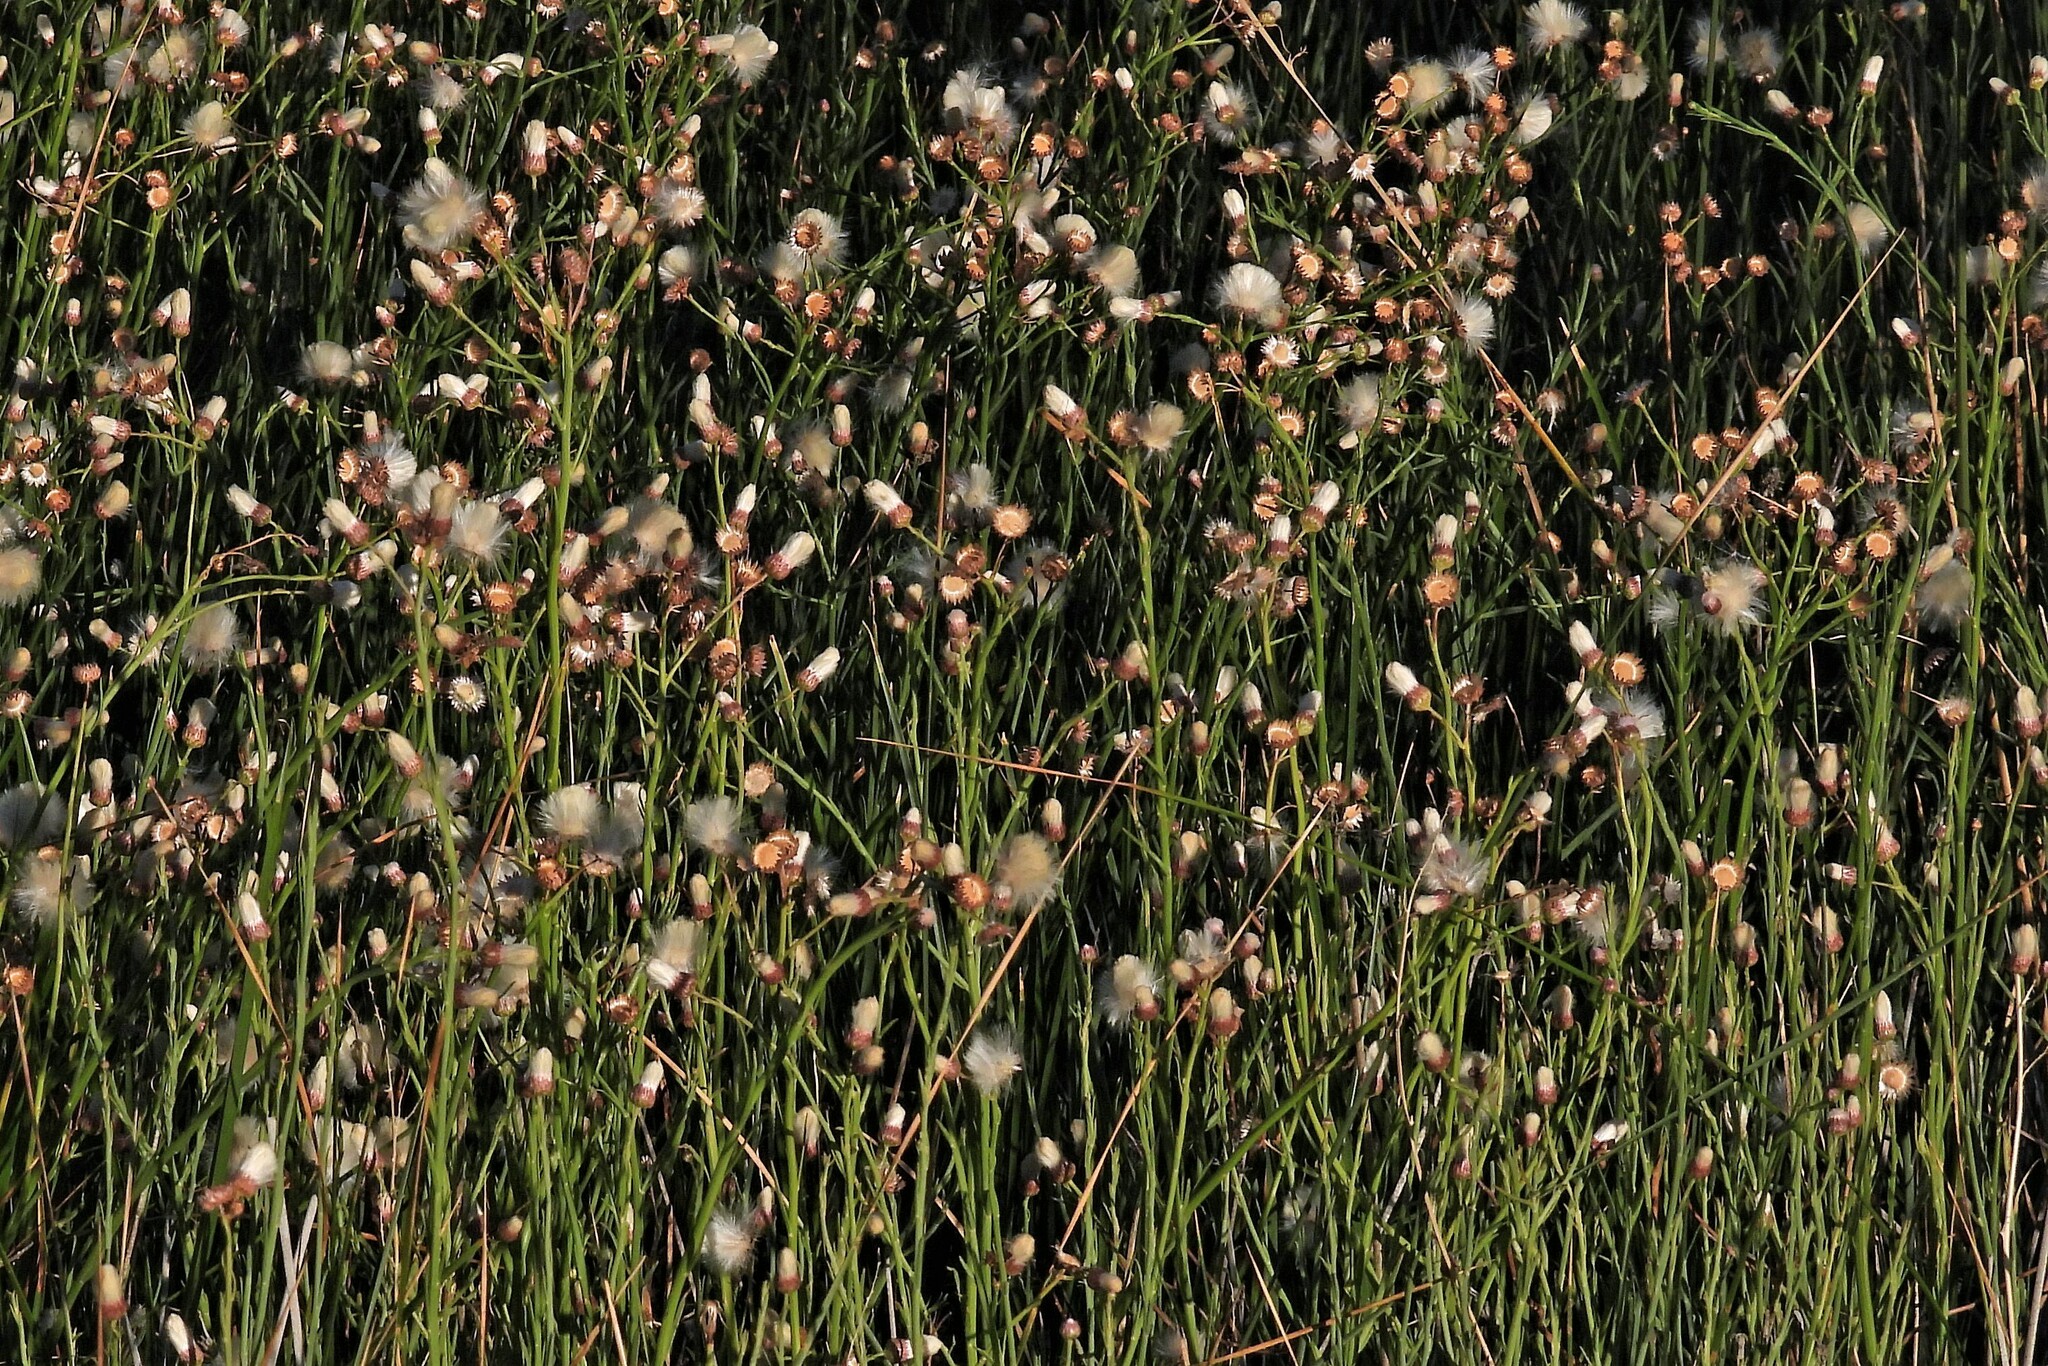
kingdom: Plantae
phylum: Tracheophyta
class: Magnoliopsida
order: Asterales
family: Asteraceae
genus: Baccharis
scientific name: Baccharis juncea
